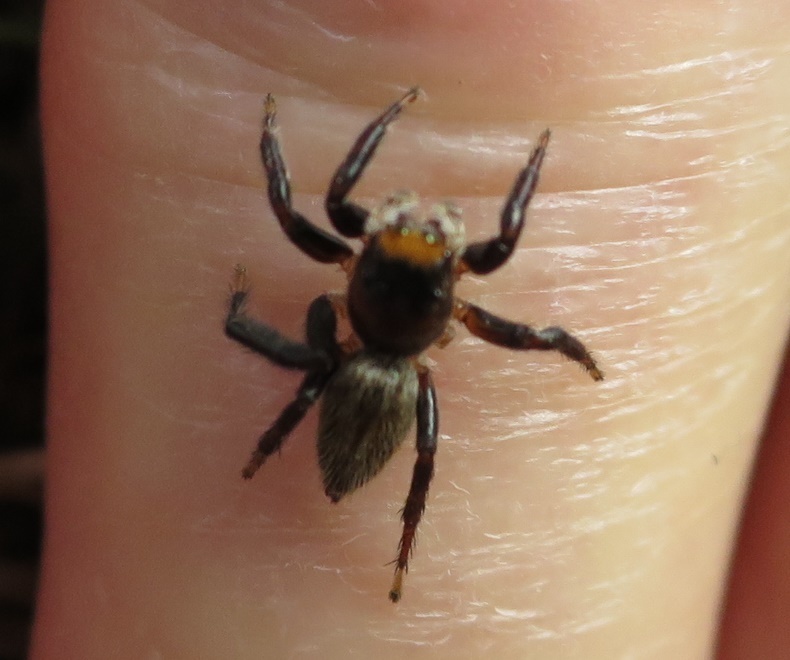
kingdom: Animalia
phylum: Arthropoda
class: Arachnida
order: Araneae
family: Salticidae
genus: Maratus
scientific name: Maratus griseus
